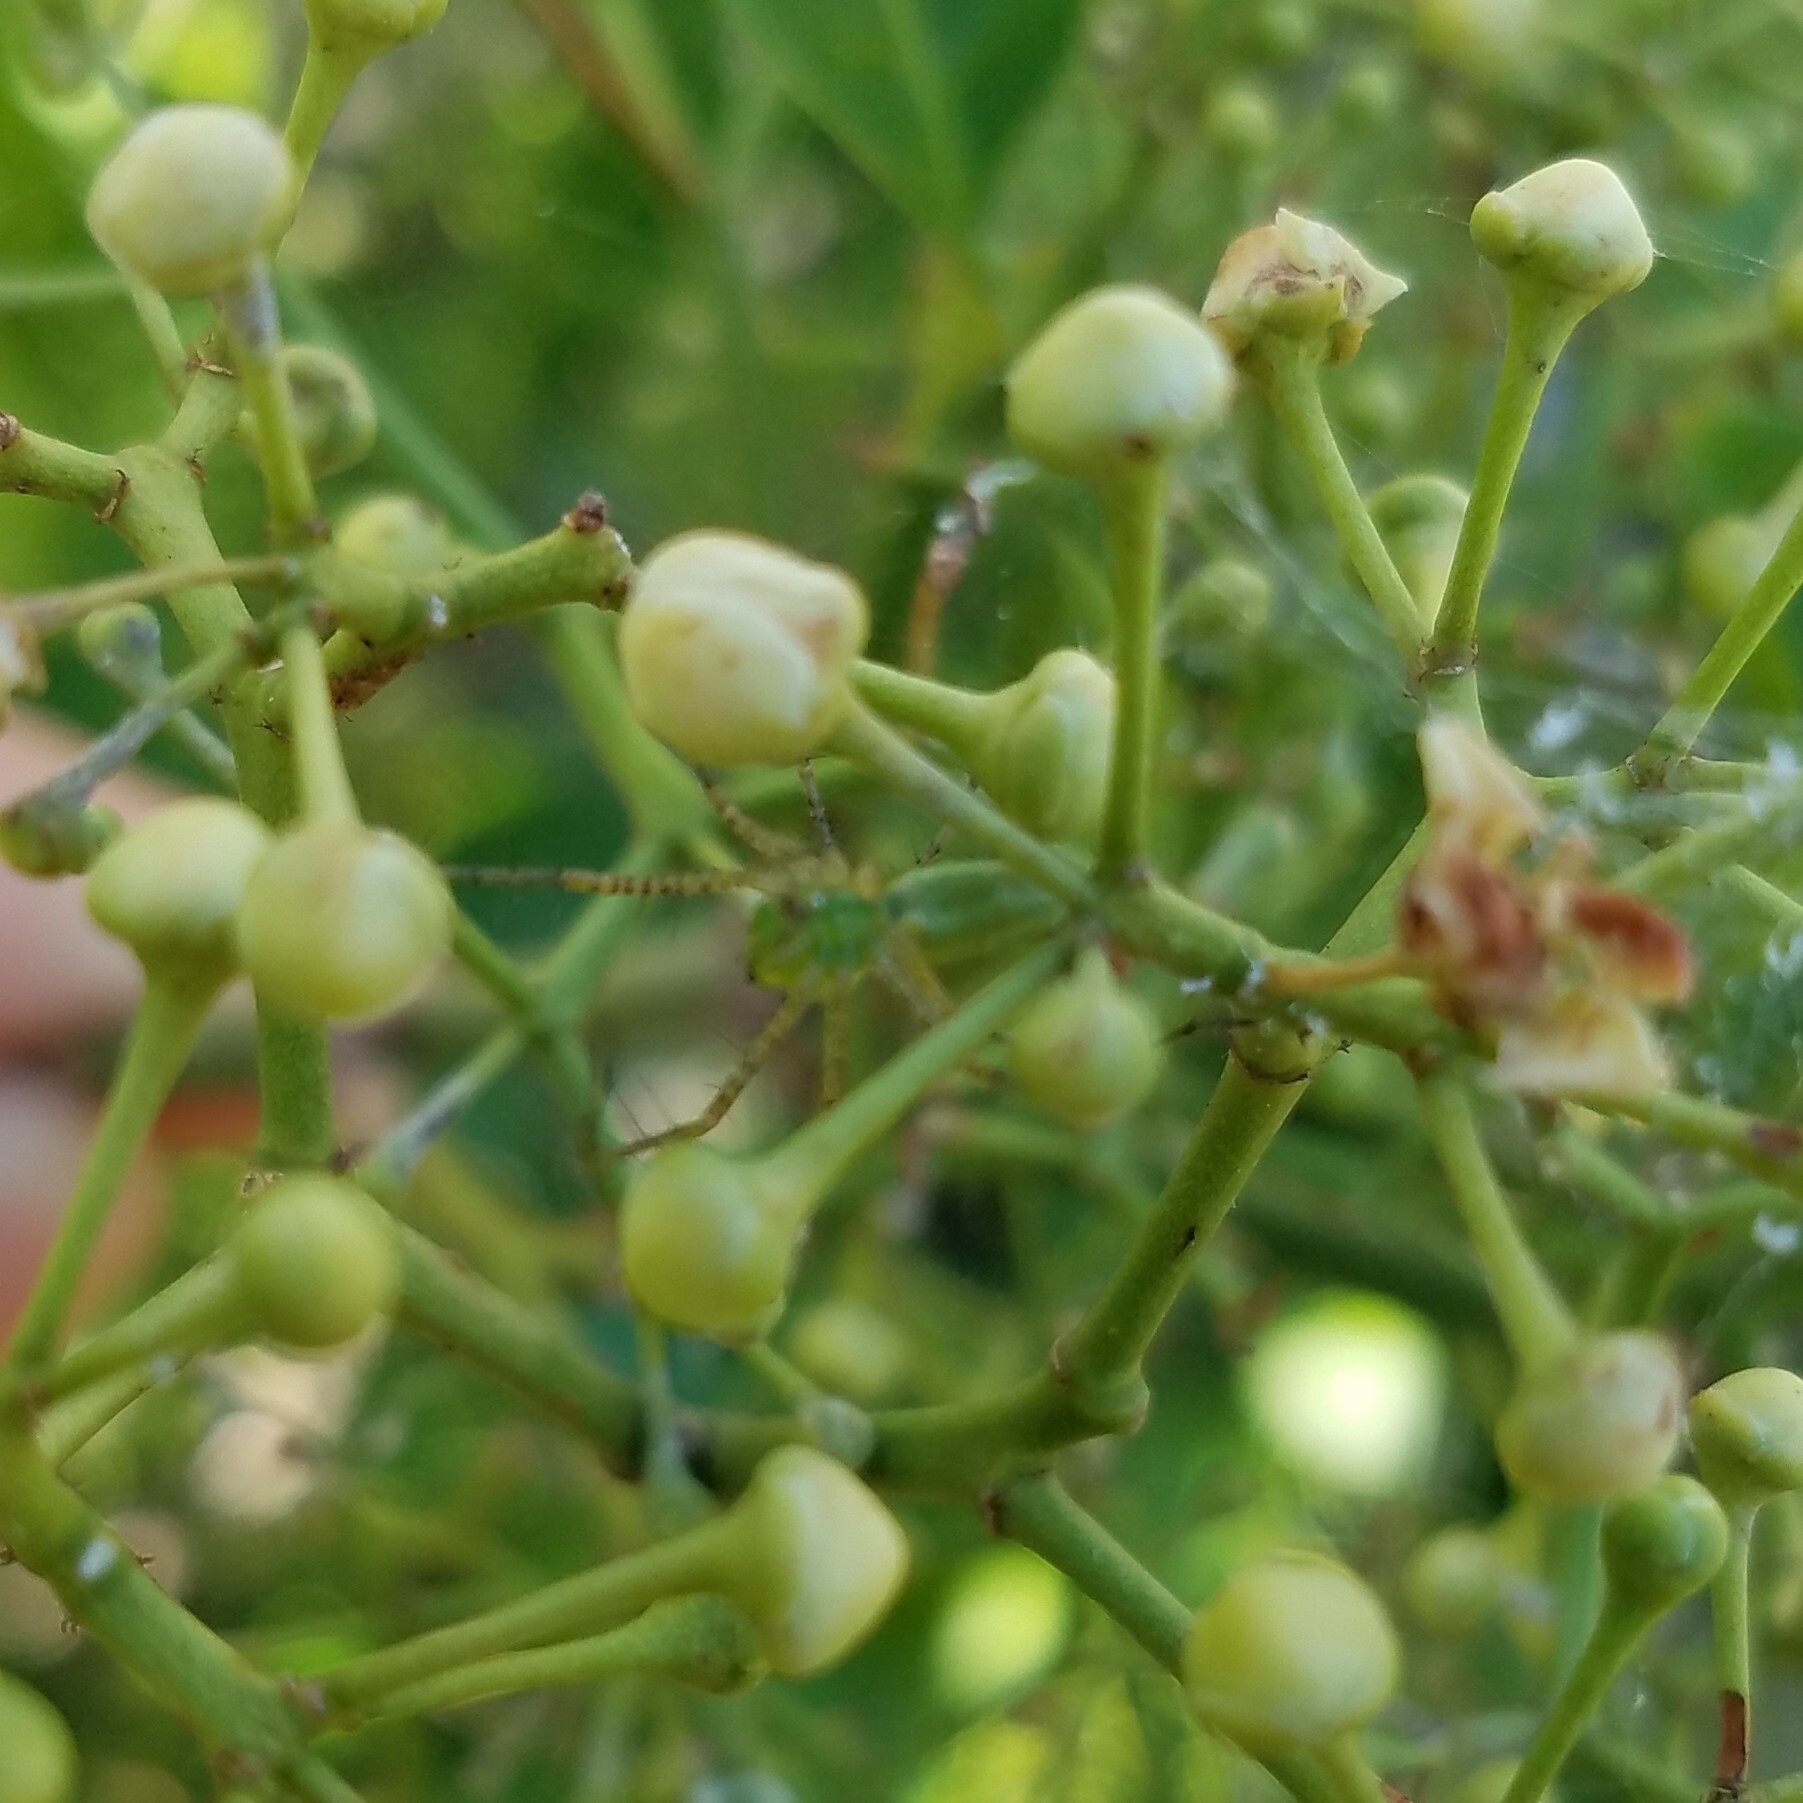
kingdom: Animalia
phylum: Arthropoda
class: Arachnida
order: Araneae
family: Oxyopidae
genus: Peucetia
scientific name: Peucetia viridans
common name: Lynx spiders
